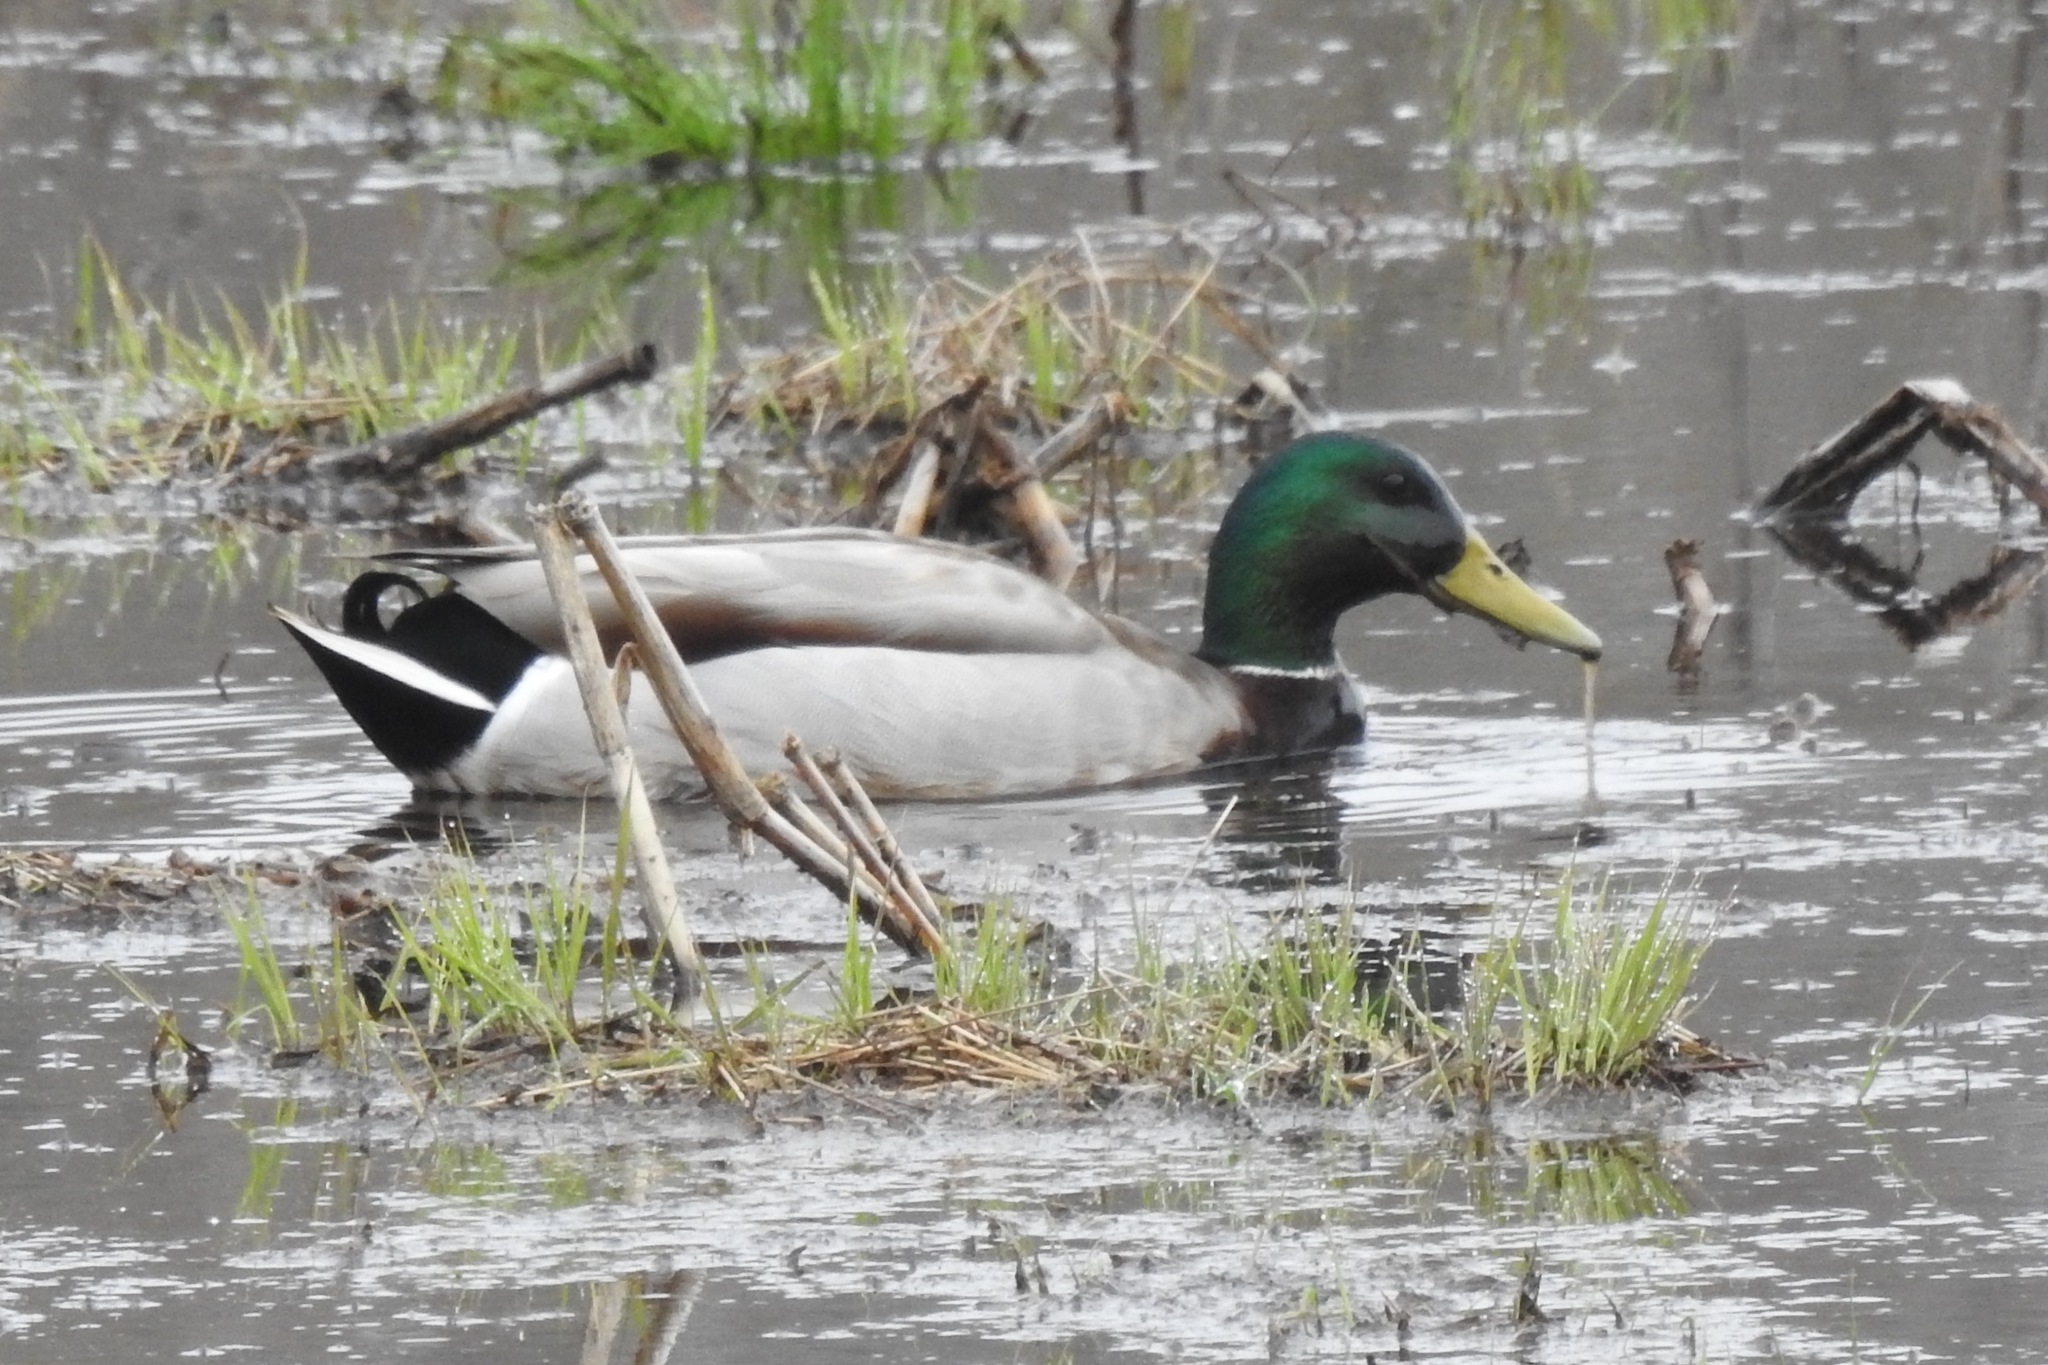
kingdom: Animalia
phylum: Chordata
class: Aves
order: Anseriformes
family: Anatidae
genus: Anas
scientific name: Anas platyrhynchos
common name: Mallard
